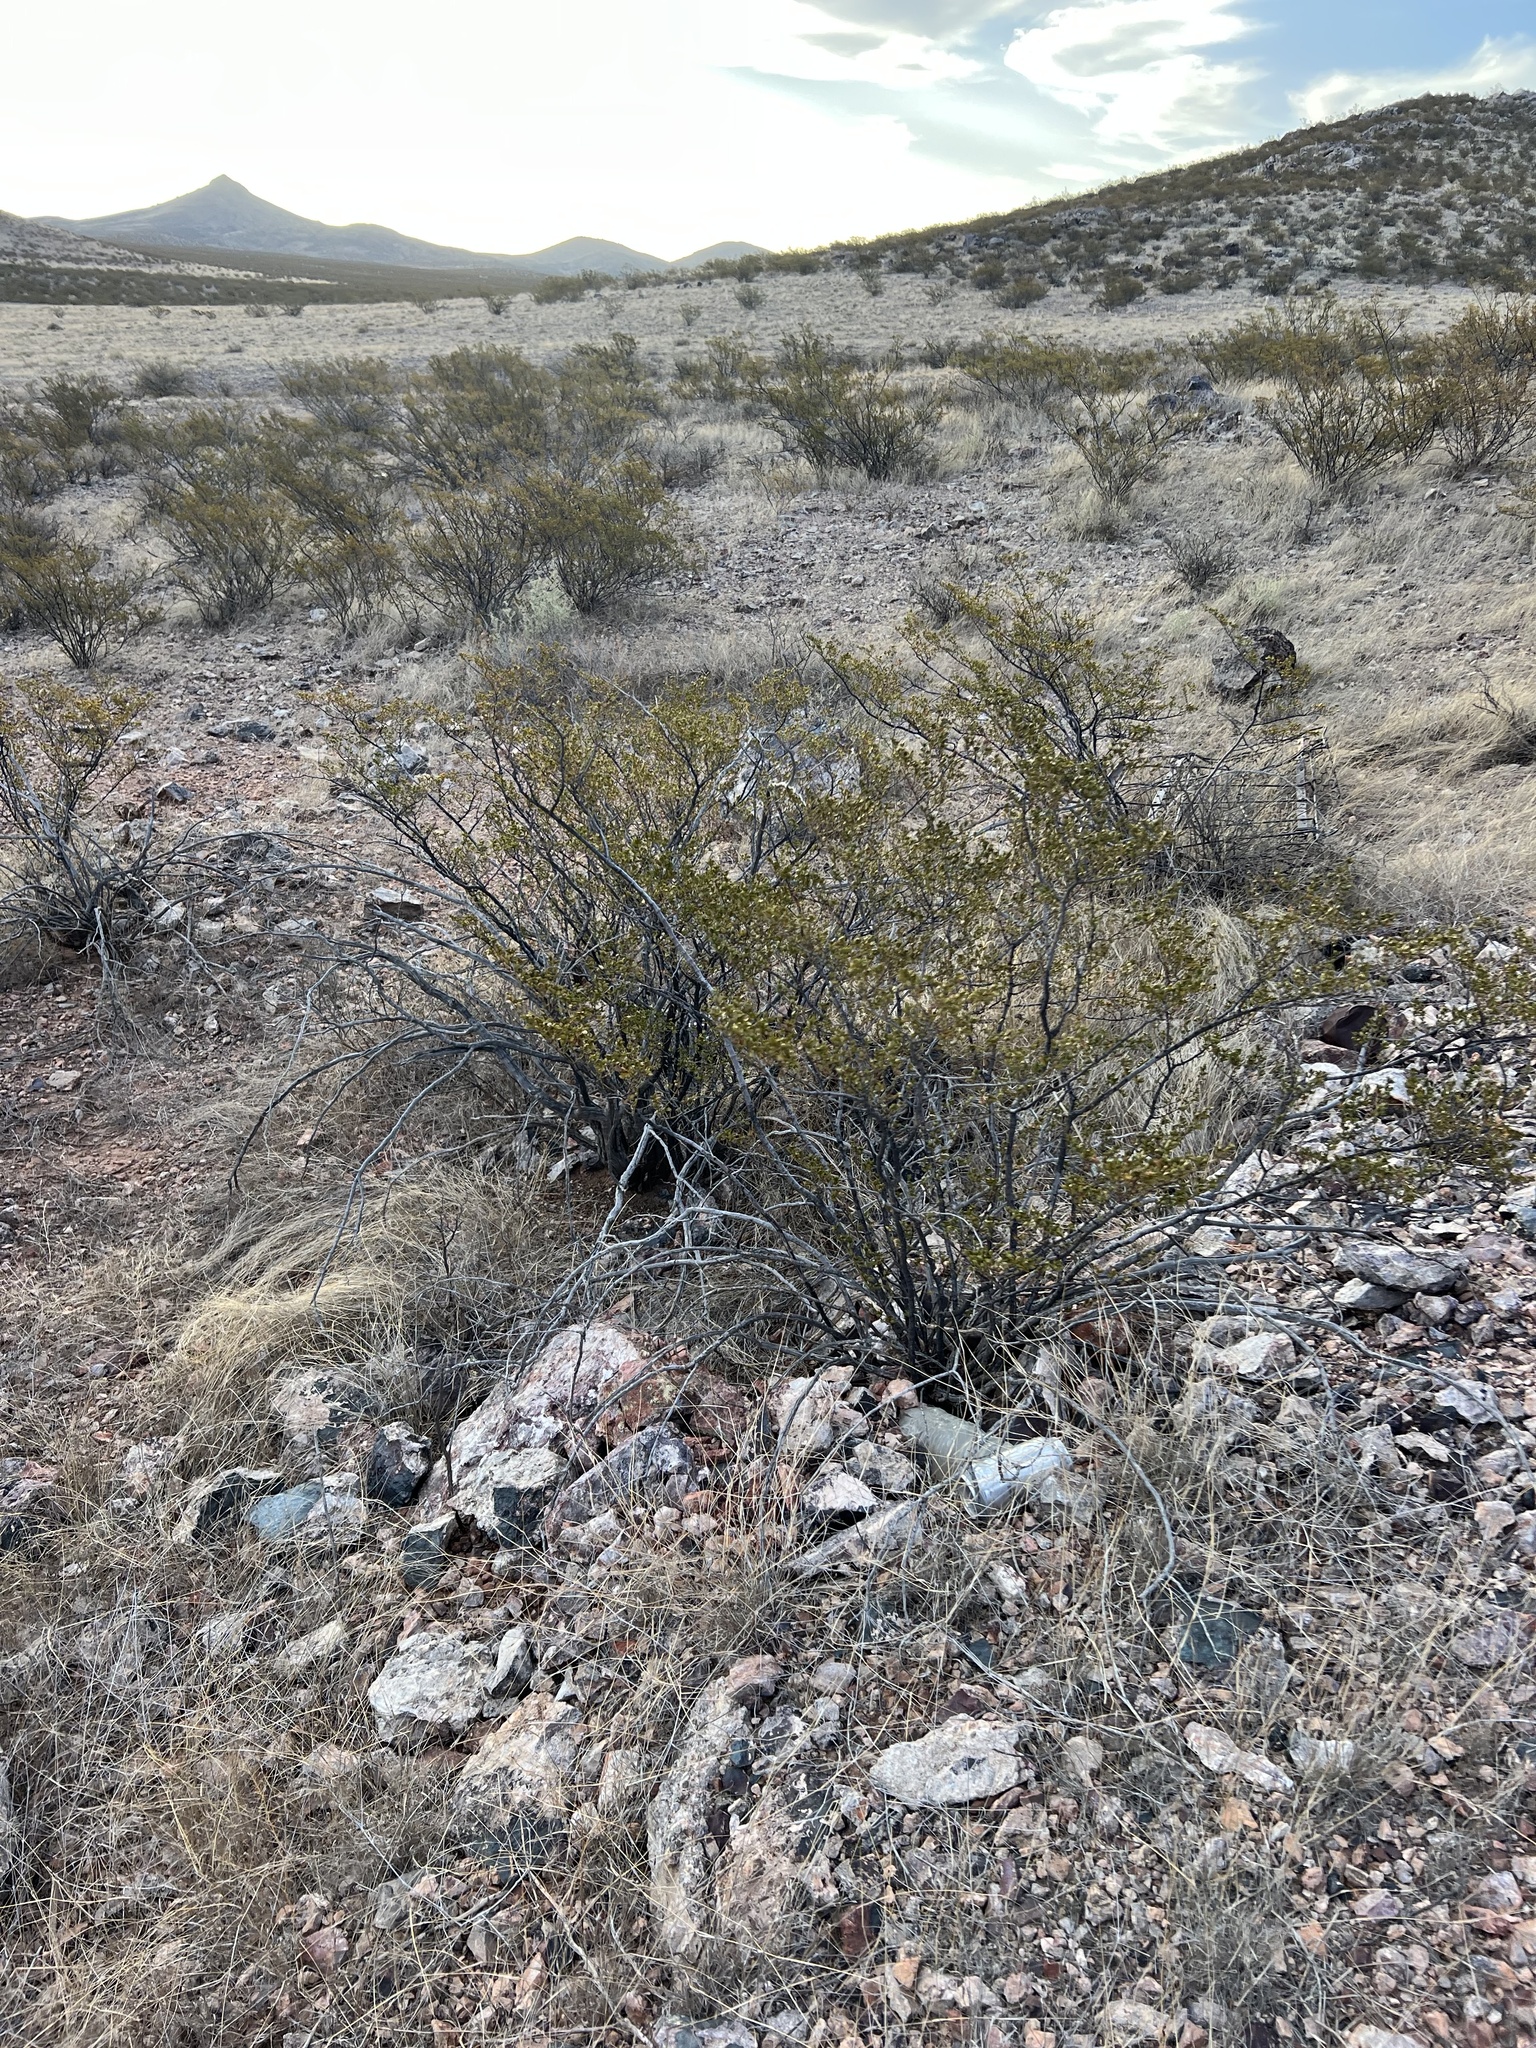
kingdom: Plantae
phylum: Tracheophyta
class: Magnoliopsida
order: Zygophyllales
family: Zygophyllaceae
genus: Larrea
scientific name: Larrea tridentata
